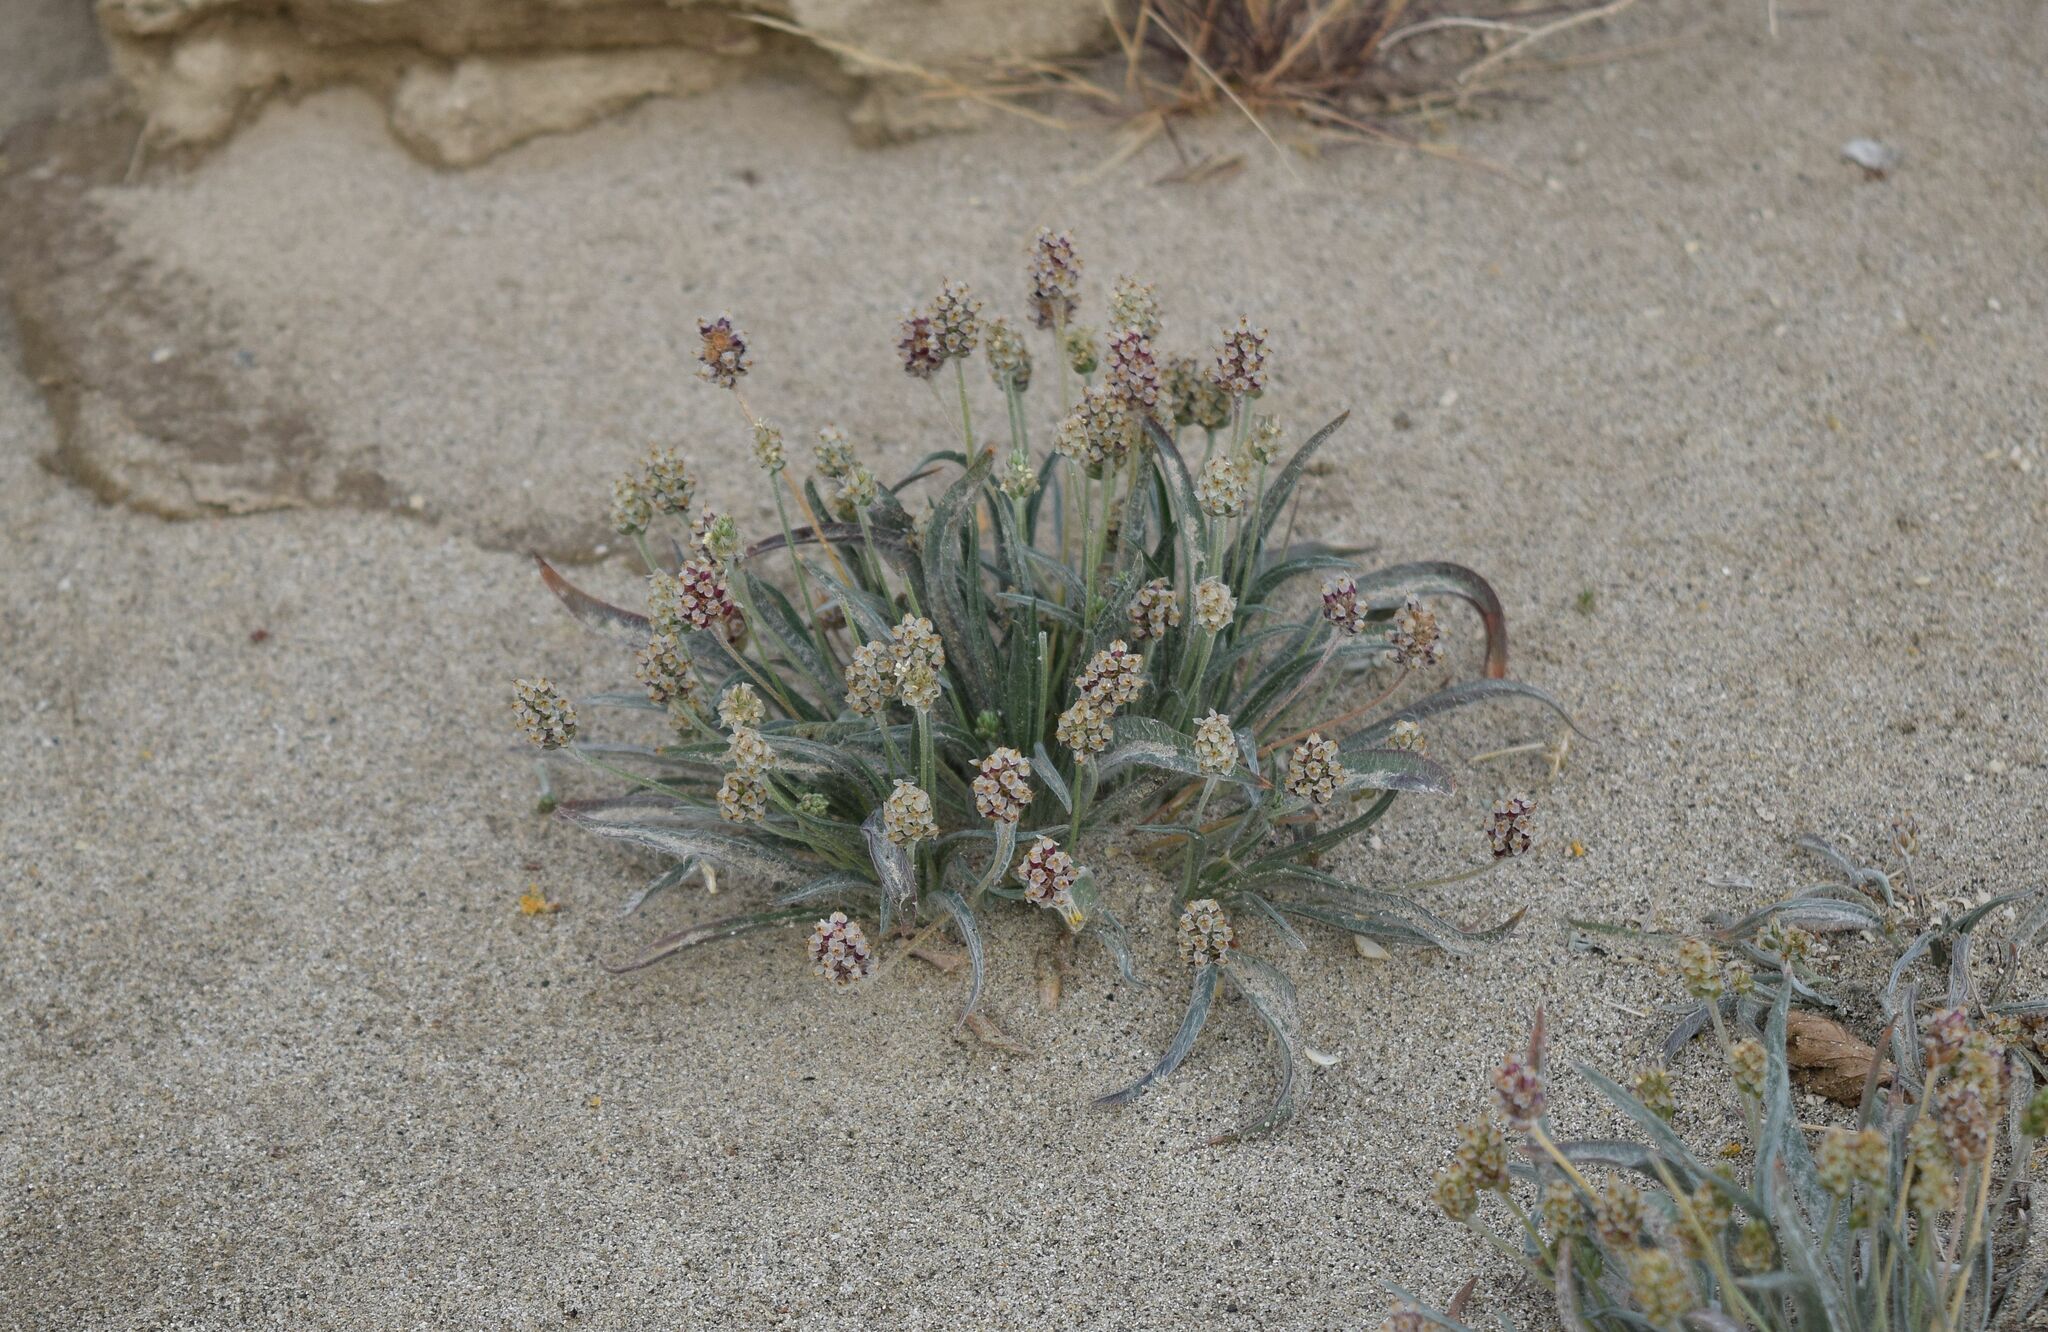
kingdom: Plantae
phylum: Tracheophyta
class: Magnoliopsida
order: Lamiales
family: Plantaginaceae
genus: Plantago
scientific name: Plantago ovata
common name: Blond plantain
